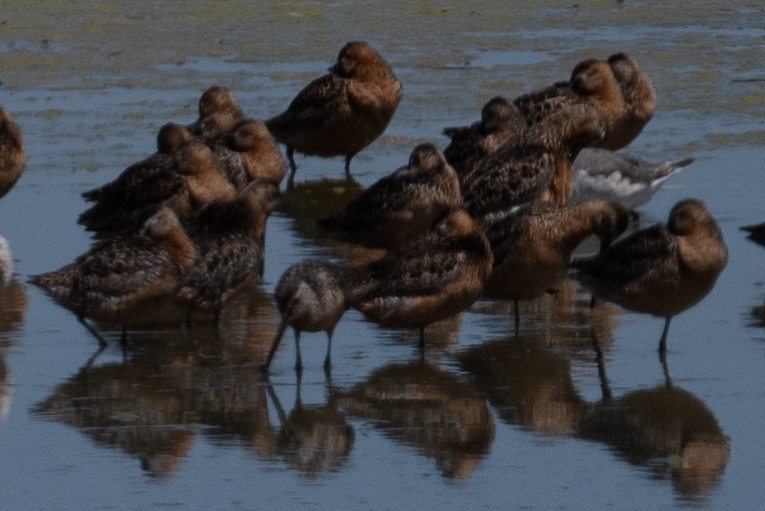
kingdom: Animalia
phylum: Chordata
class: Aves
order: Charadriiformes
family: Scolopacidae
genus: Limnodromus
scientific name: Limnodromus scolopaceus
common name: Long-billed dowitcher
